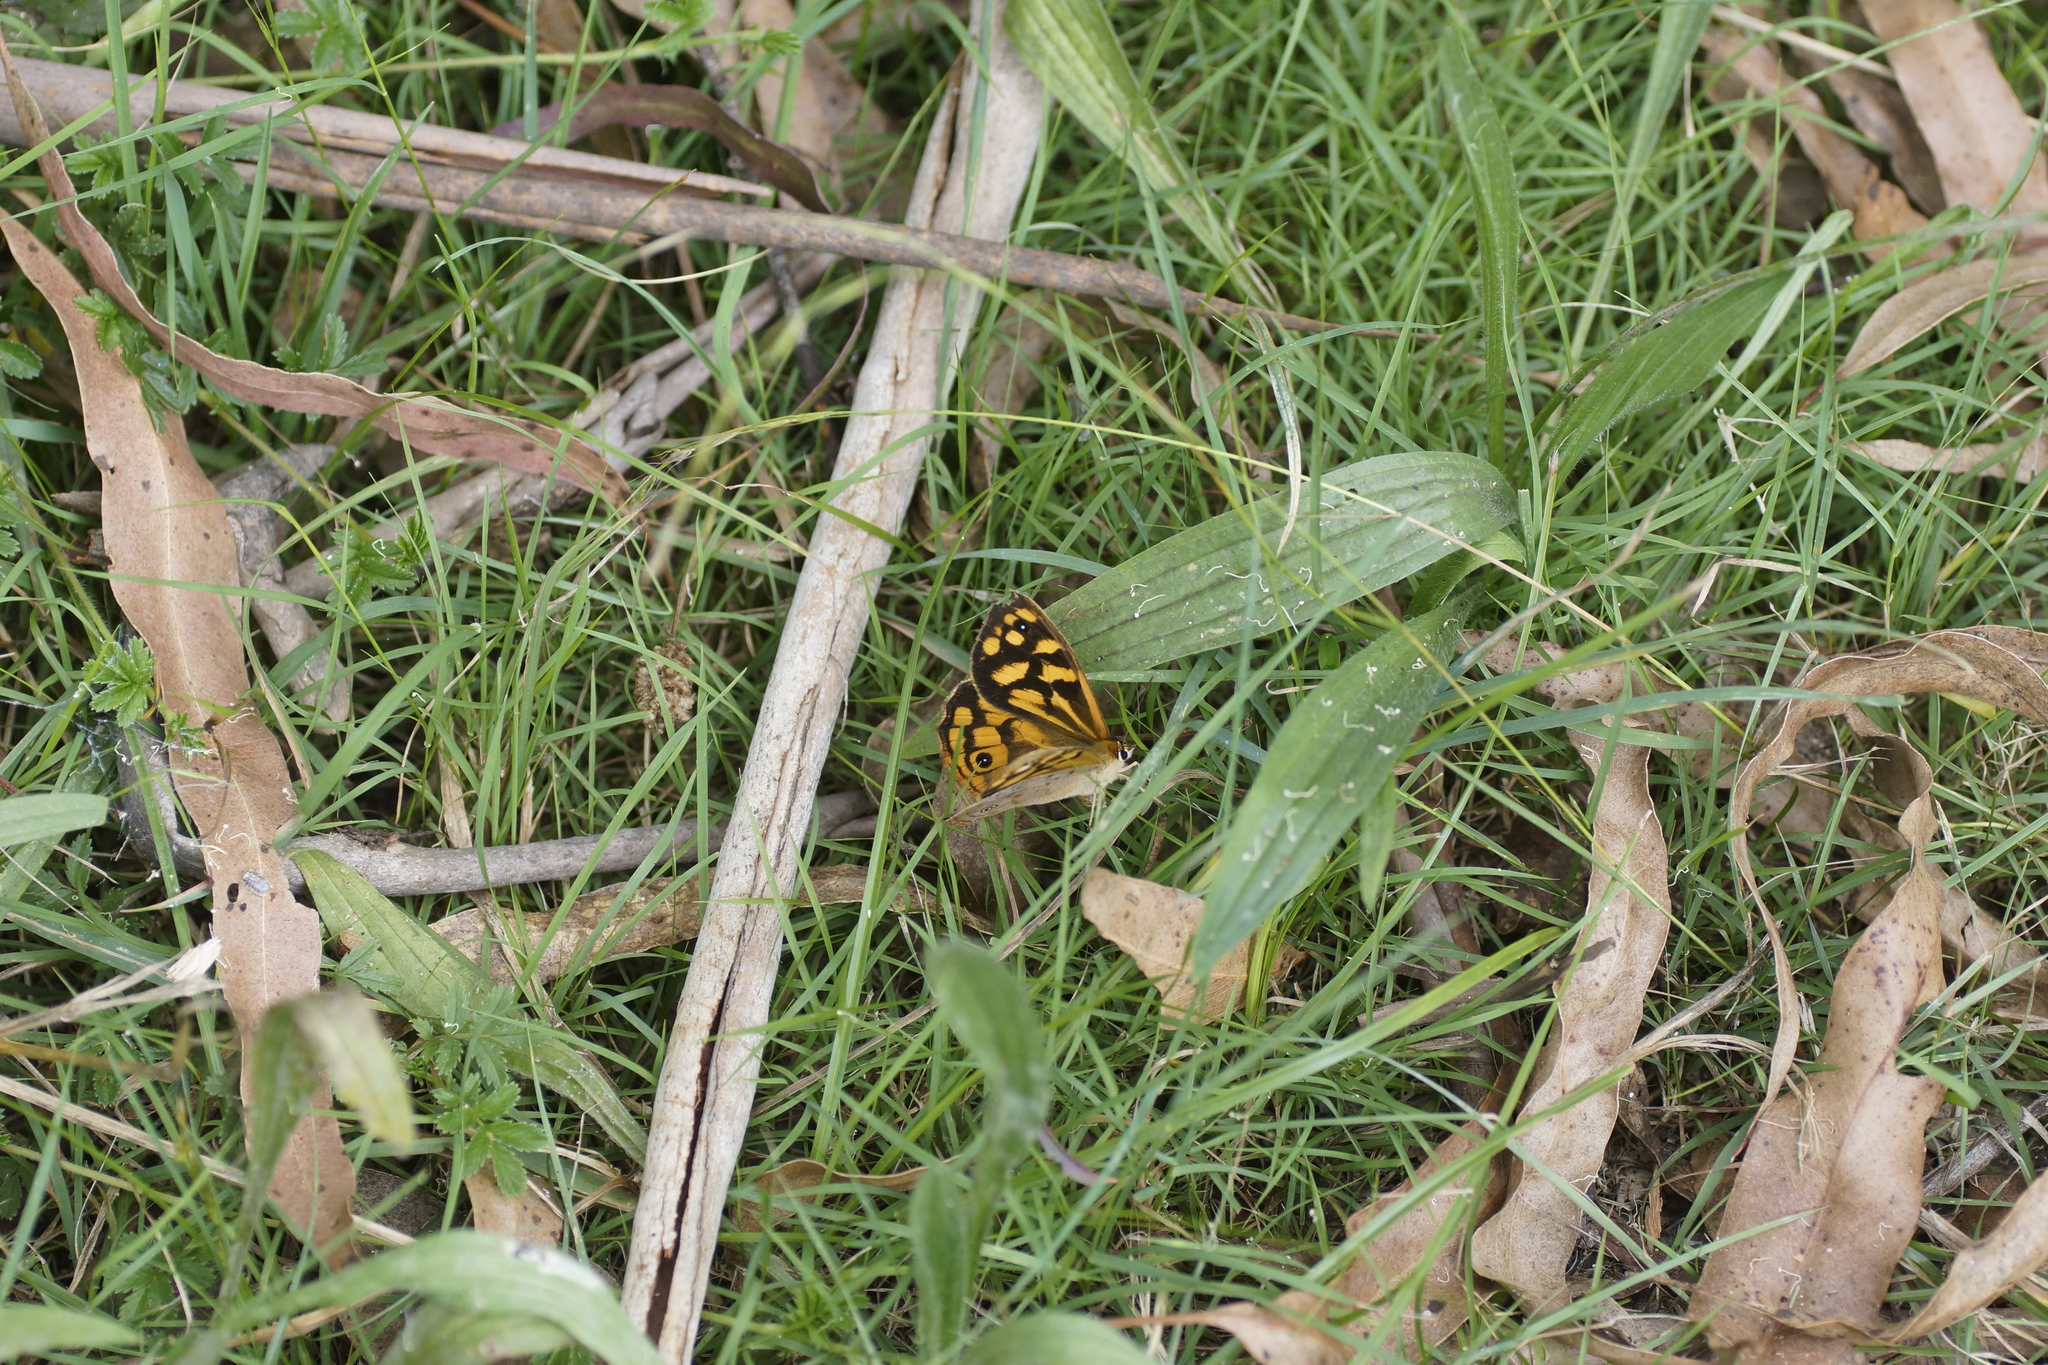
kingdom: Animalia
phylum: Arthropoda
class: Insecta
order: Lepidoptera
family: Nymphalidae
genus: Heteronympha
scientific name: Heteronympha paradelpha
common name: Spotted brown
